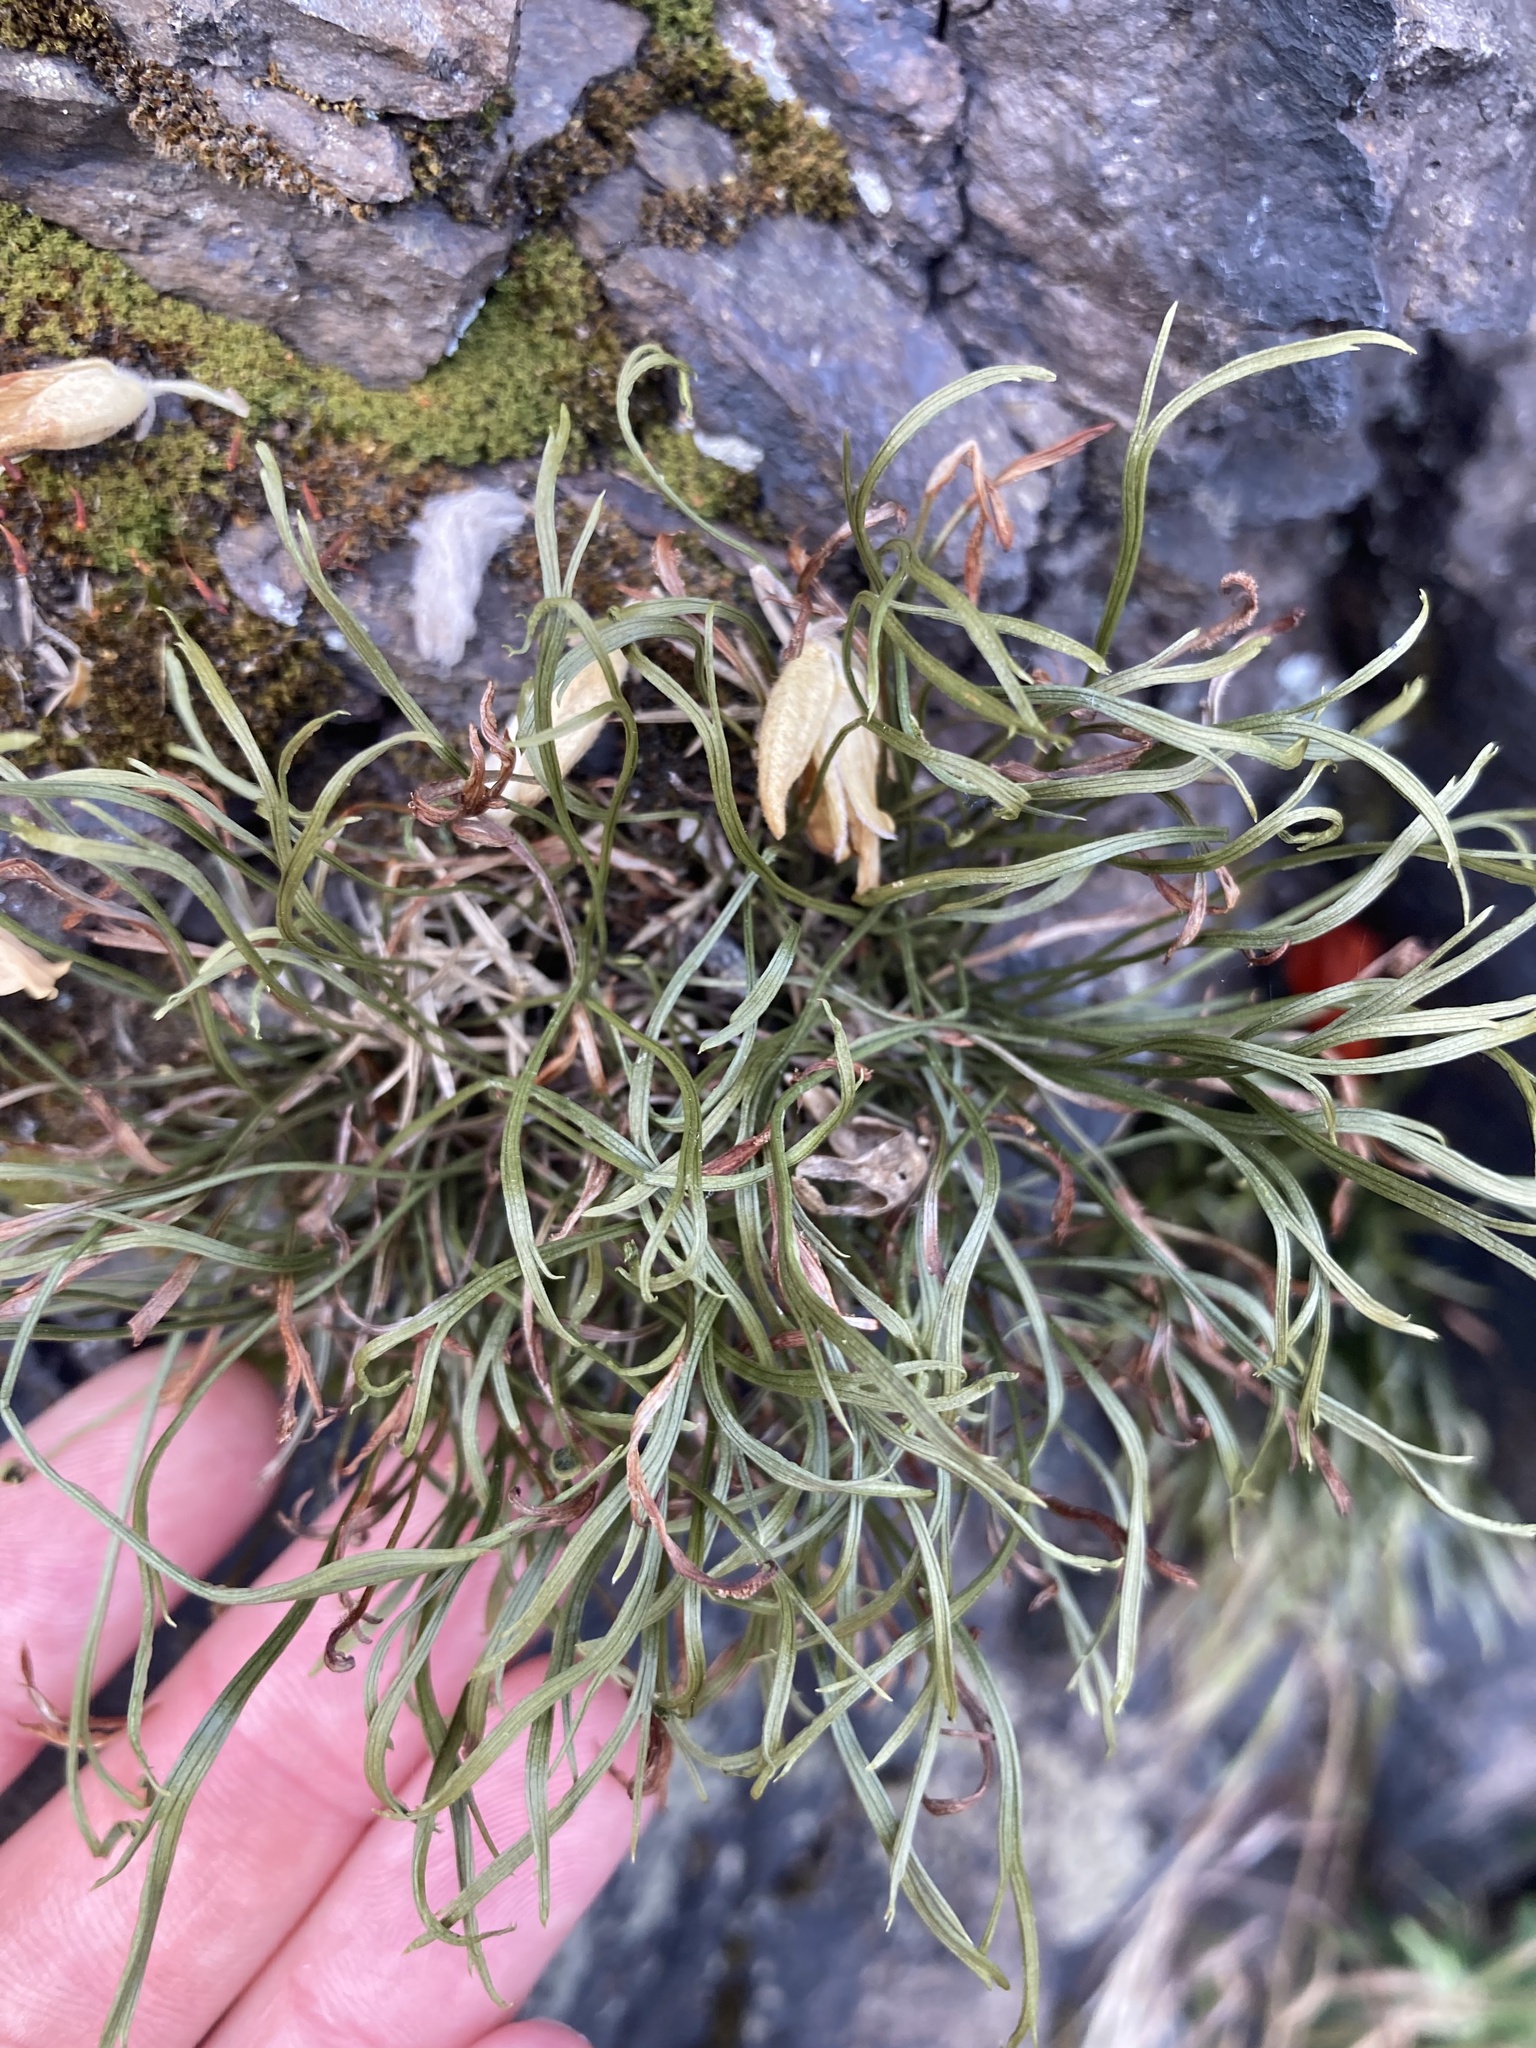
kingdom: Plantae
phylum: Tracheophyta
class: Polypodiopsida
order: Polypodiales
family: Aspleniaceae
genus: Asplenium
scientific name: Asplenium septentrionale
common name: Forked spleenwort
